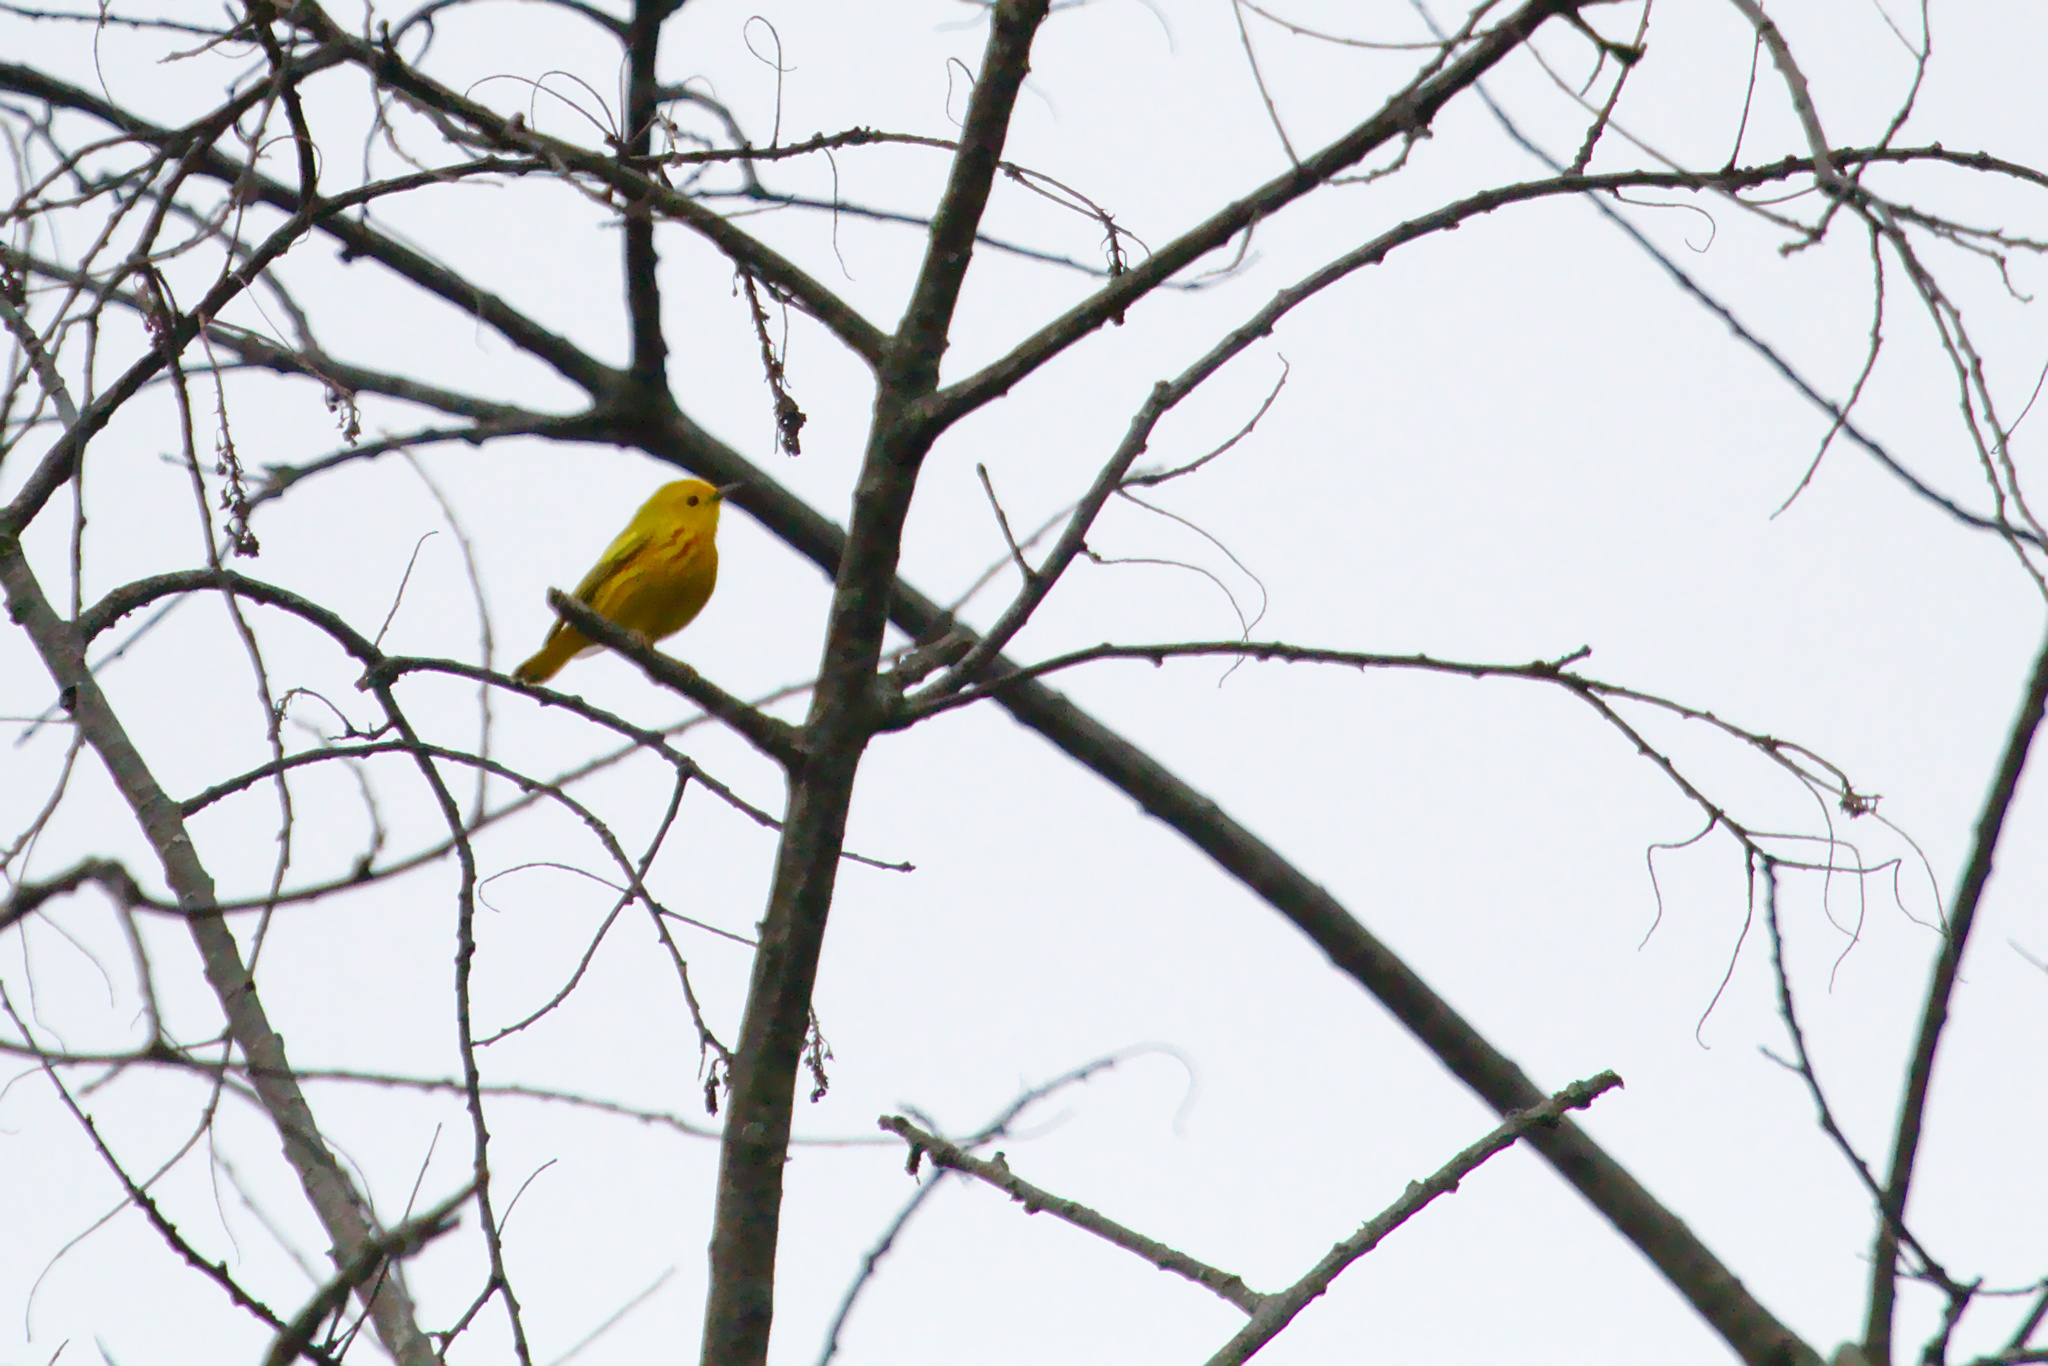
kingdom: Animalia
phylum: Chordata
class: Aves
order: Passeriformes
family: Parulidae
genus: Setophaga
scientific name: Setophaga petechia
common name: Yellow warbler
